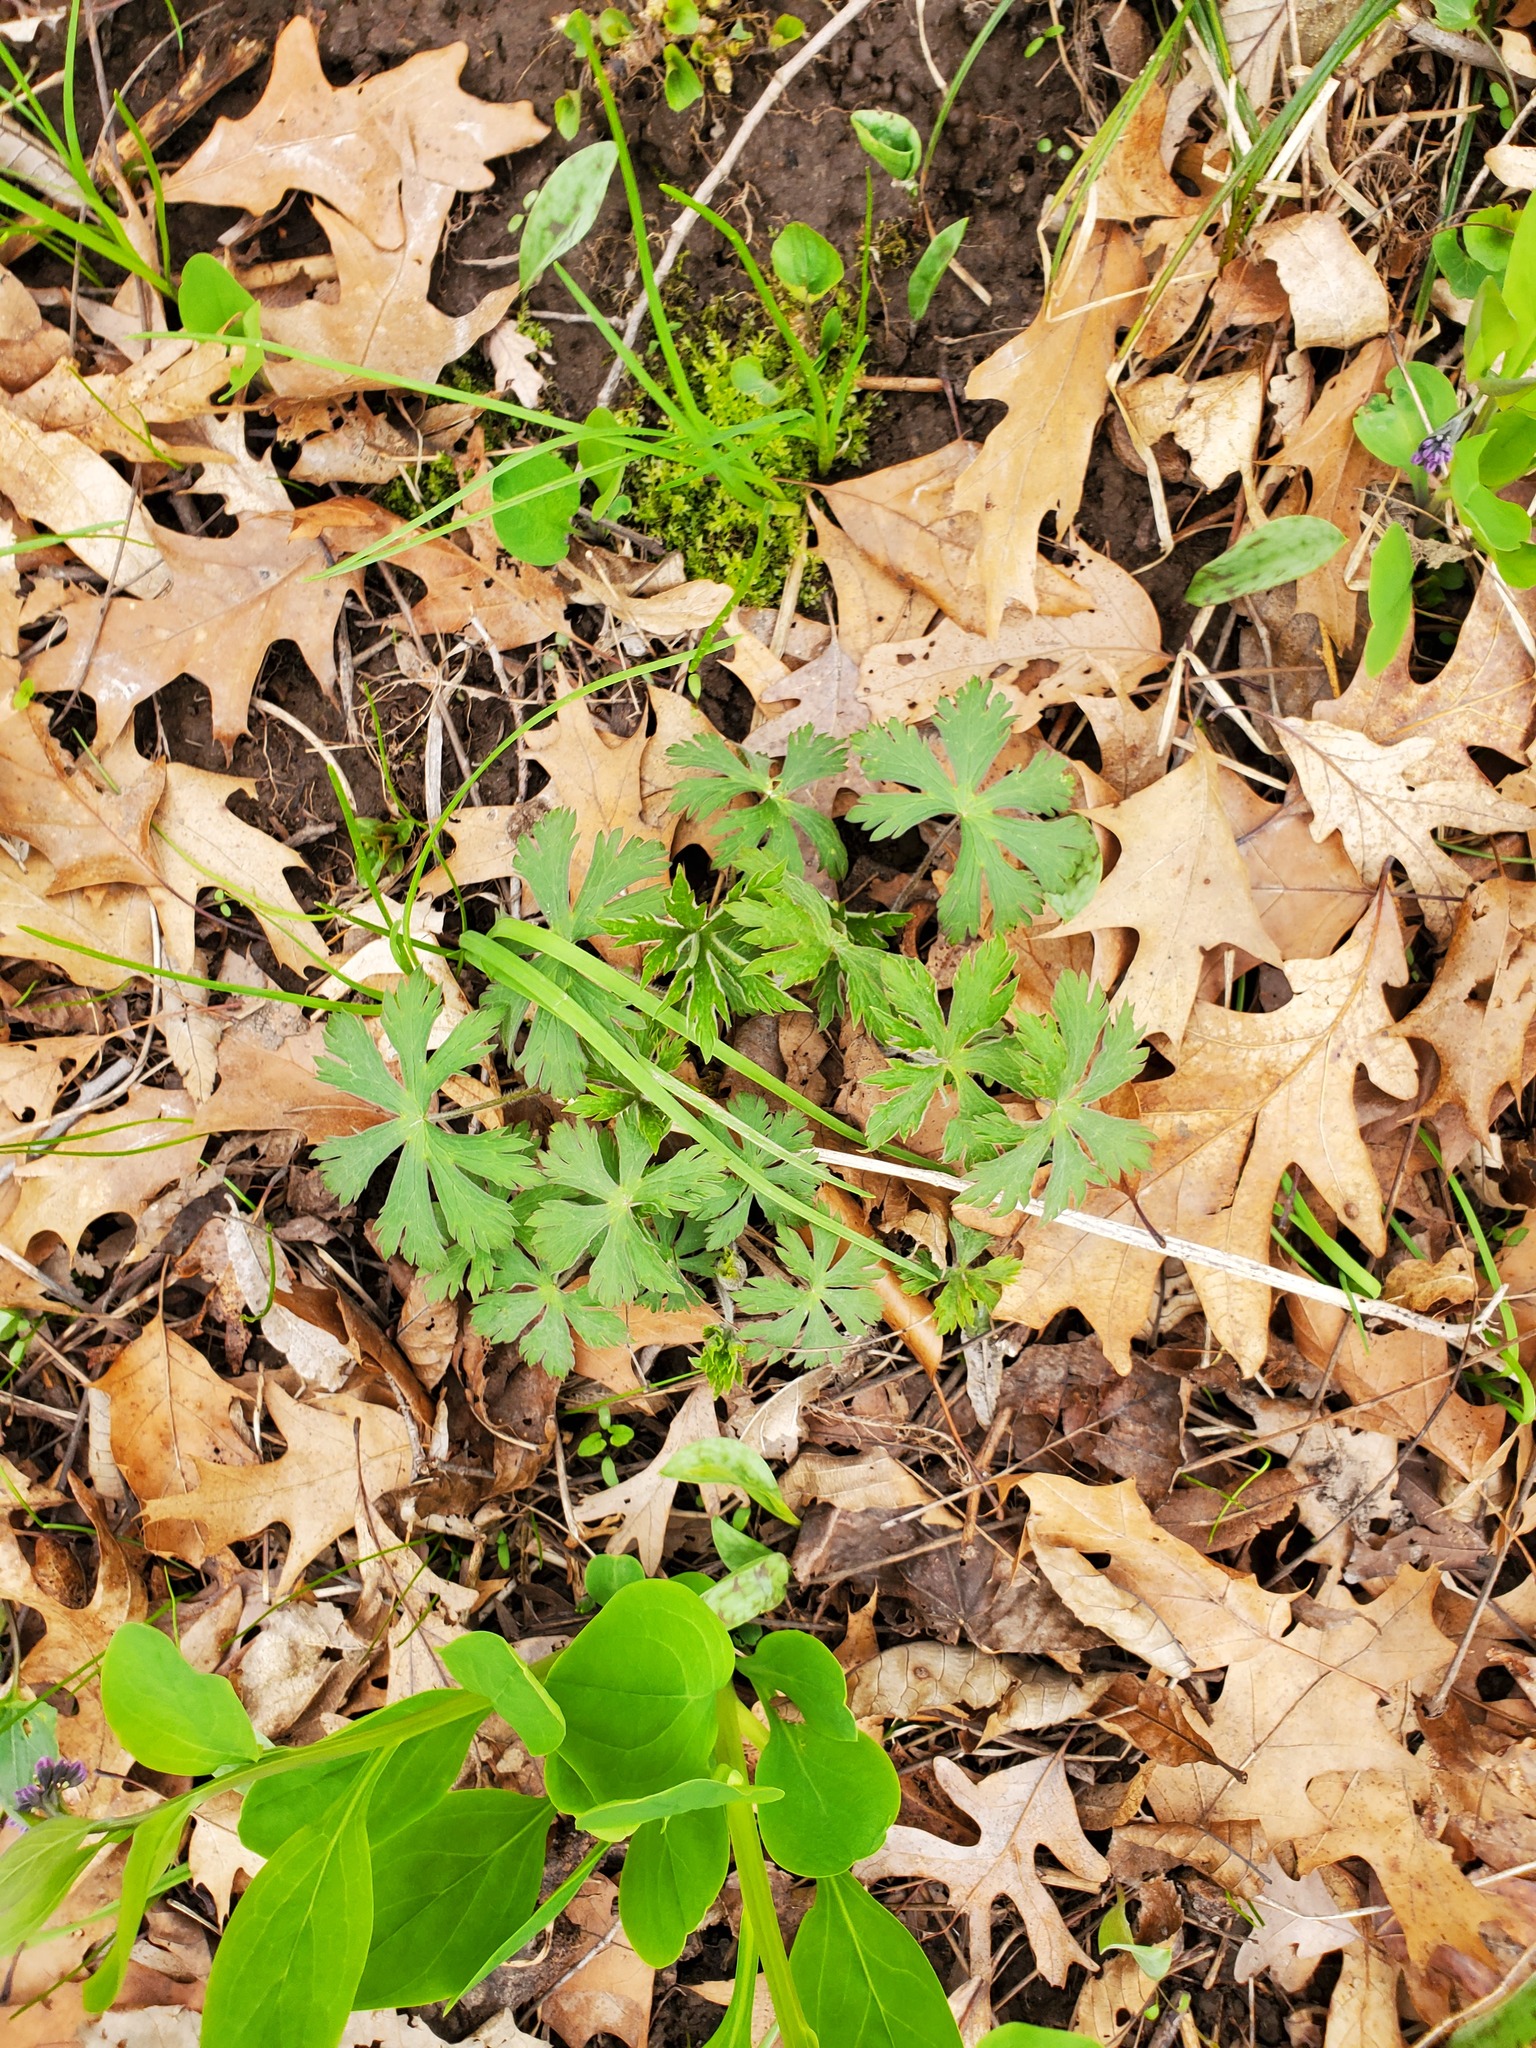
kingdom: Plantae
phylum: Tracheophyta
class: Magnoliopsida
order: Geraniales
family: Geraniaceae
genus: Geranium
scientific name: Geranium maculatum
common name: Spotted geranium
